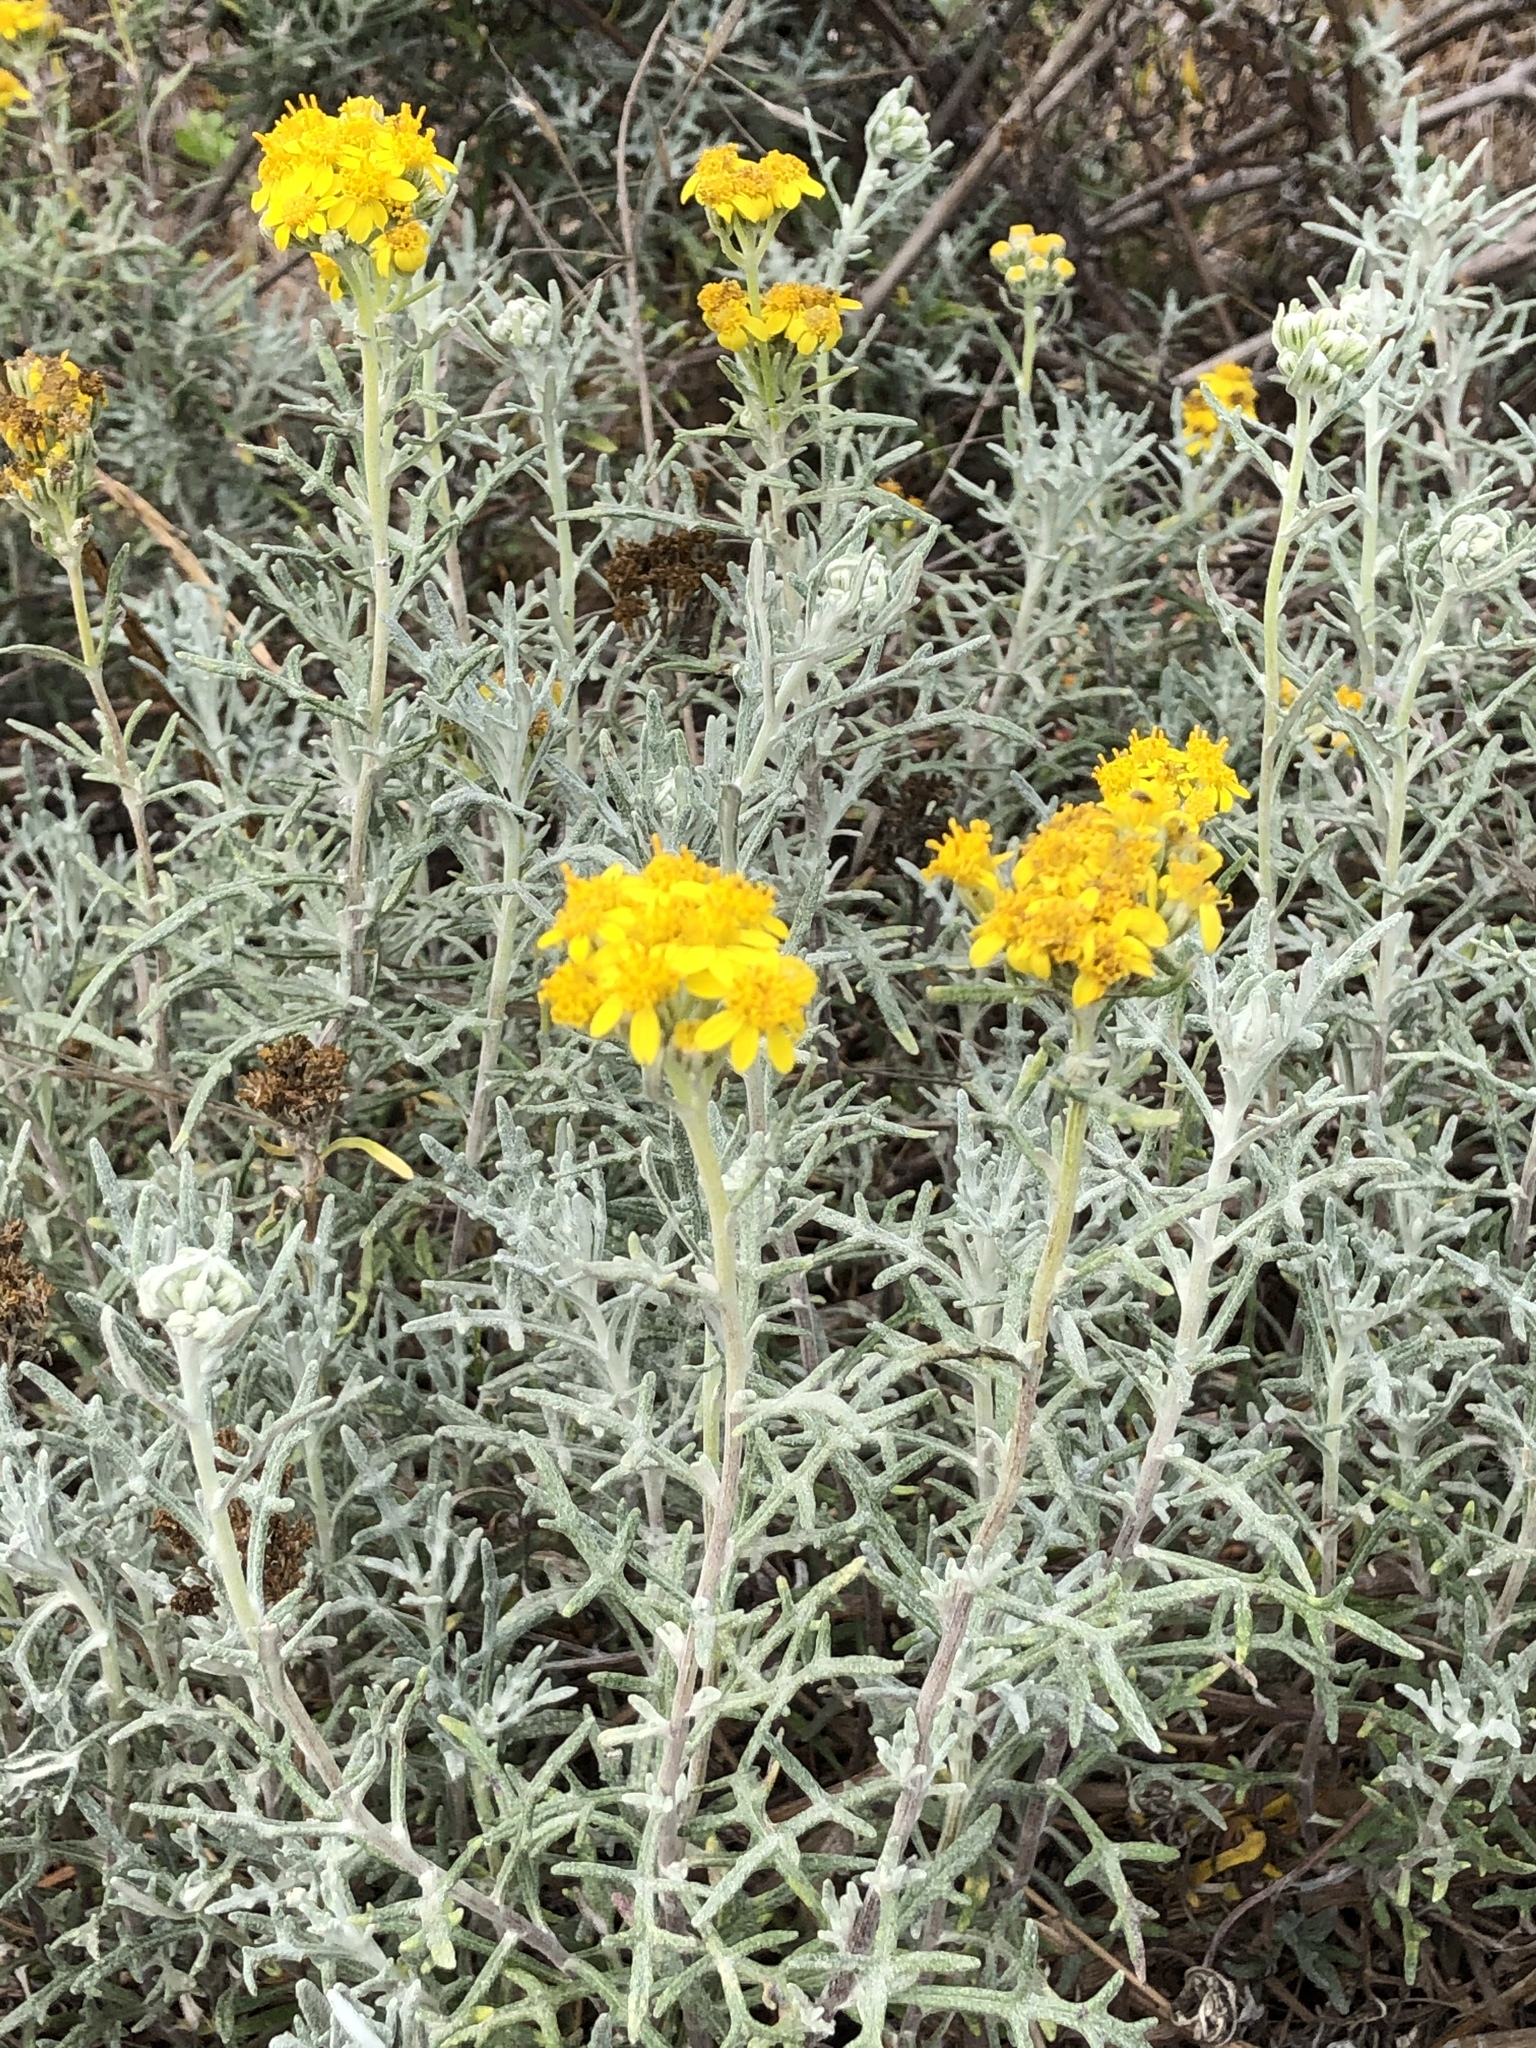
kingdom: Plantae
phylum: Tracheophyta
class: Magnoliopsida
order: Asterales
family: Asteraceae
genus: Eriophyllum
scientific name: Eriophyllum staechadifolium
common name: Lizardtail
